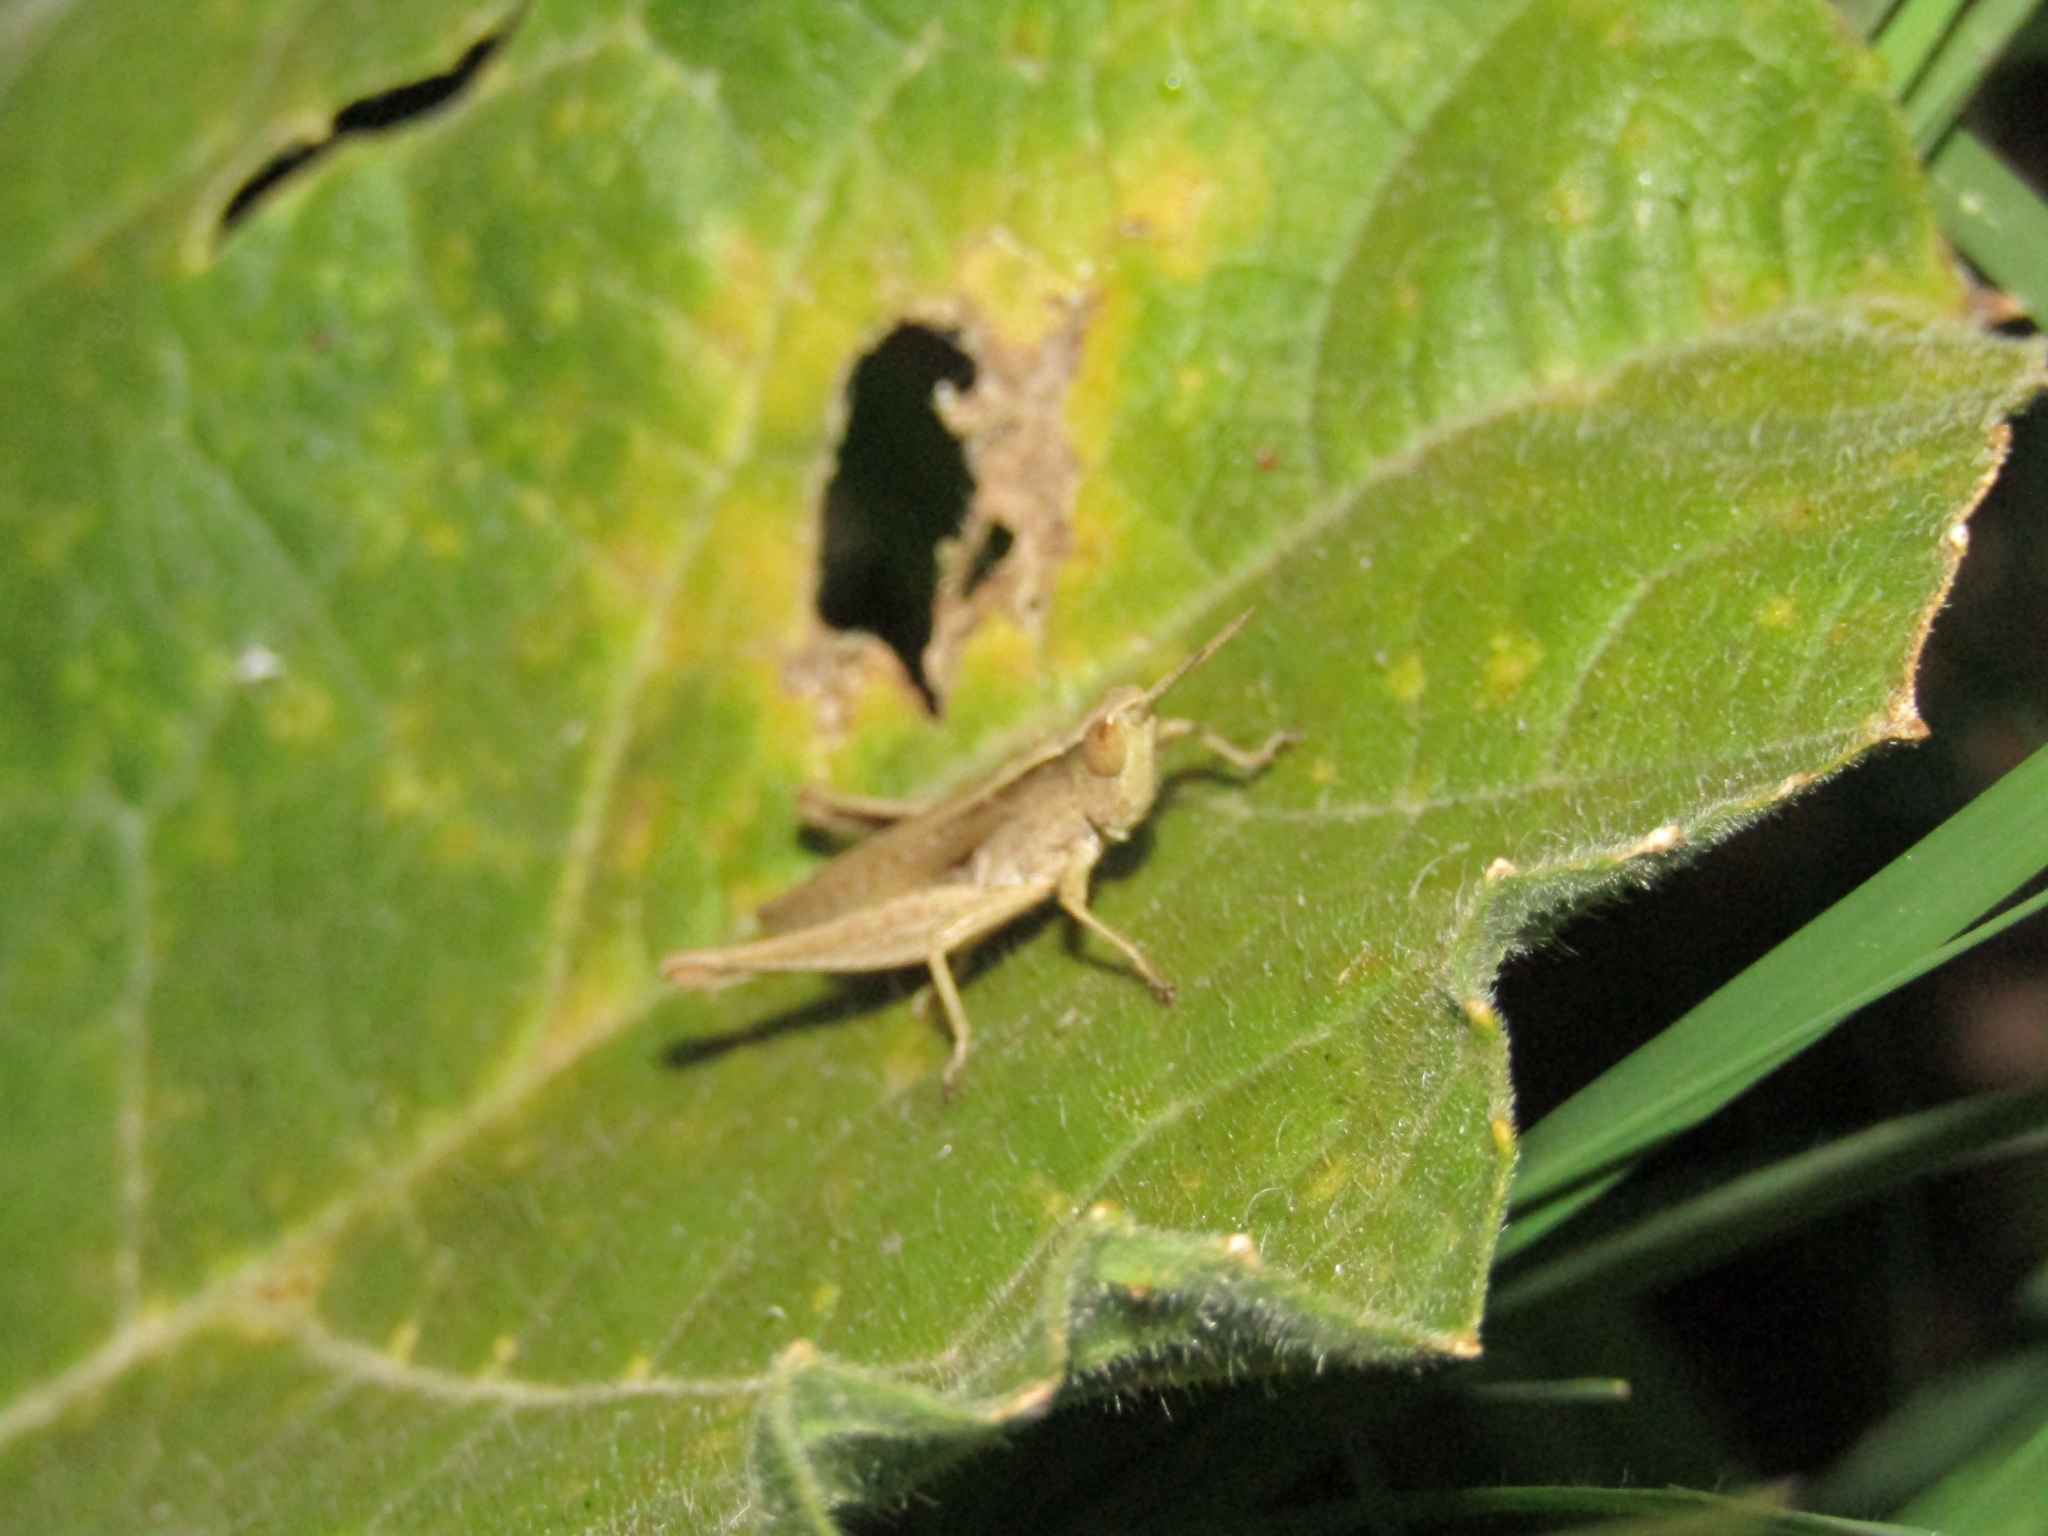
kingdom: Animalia
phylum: Arthropoda
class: Insecta
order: Orthoptera
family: Acrididae
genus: Laplatacris
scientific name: Laplatacris dispar
